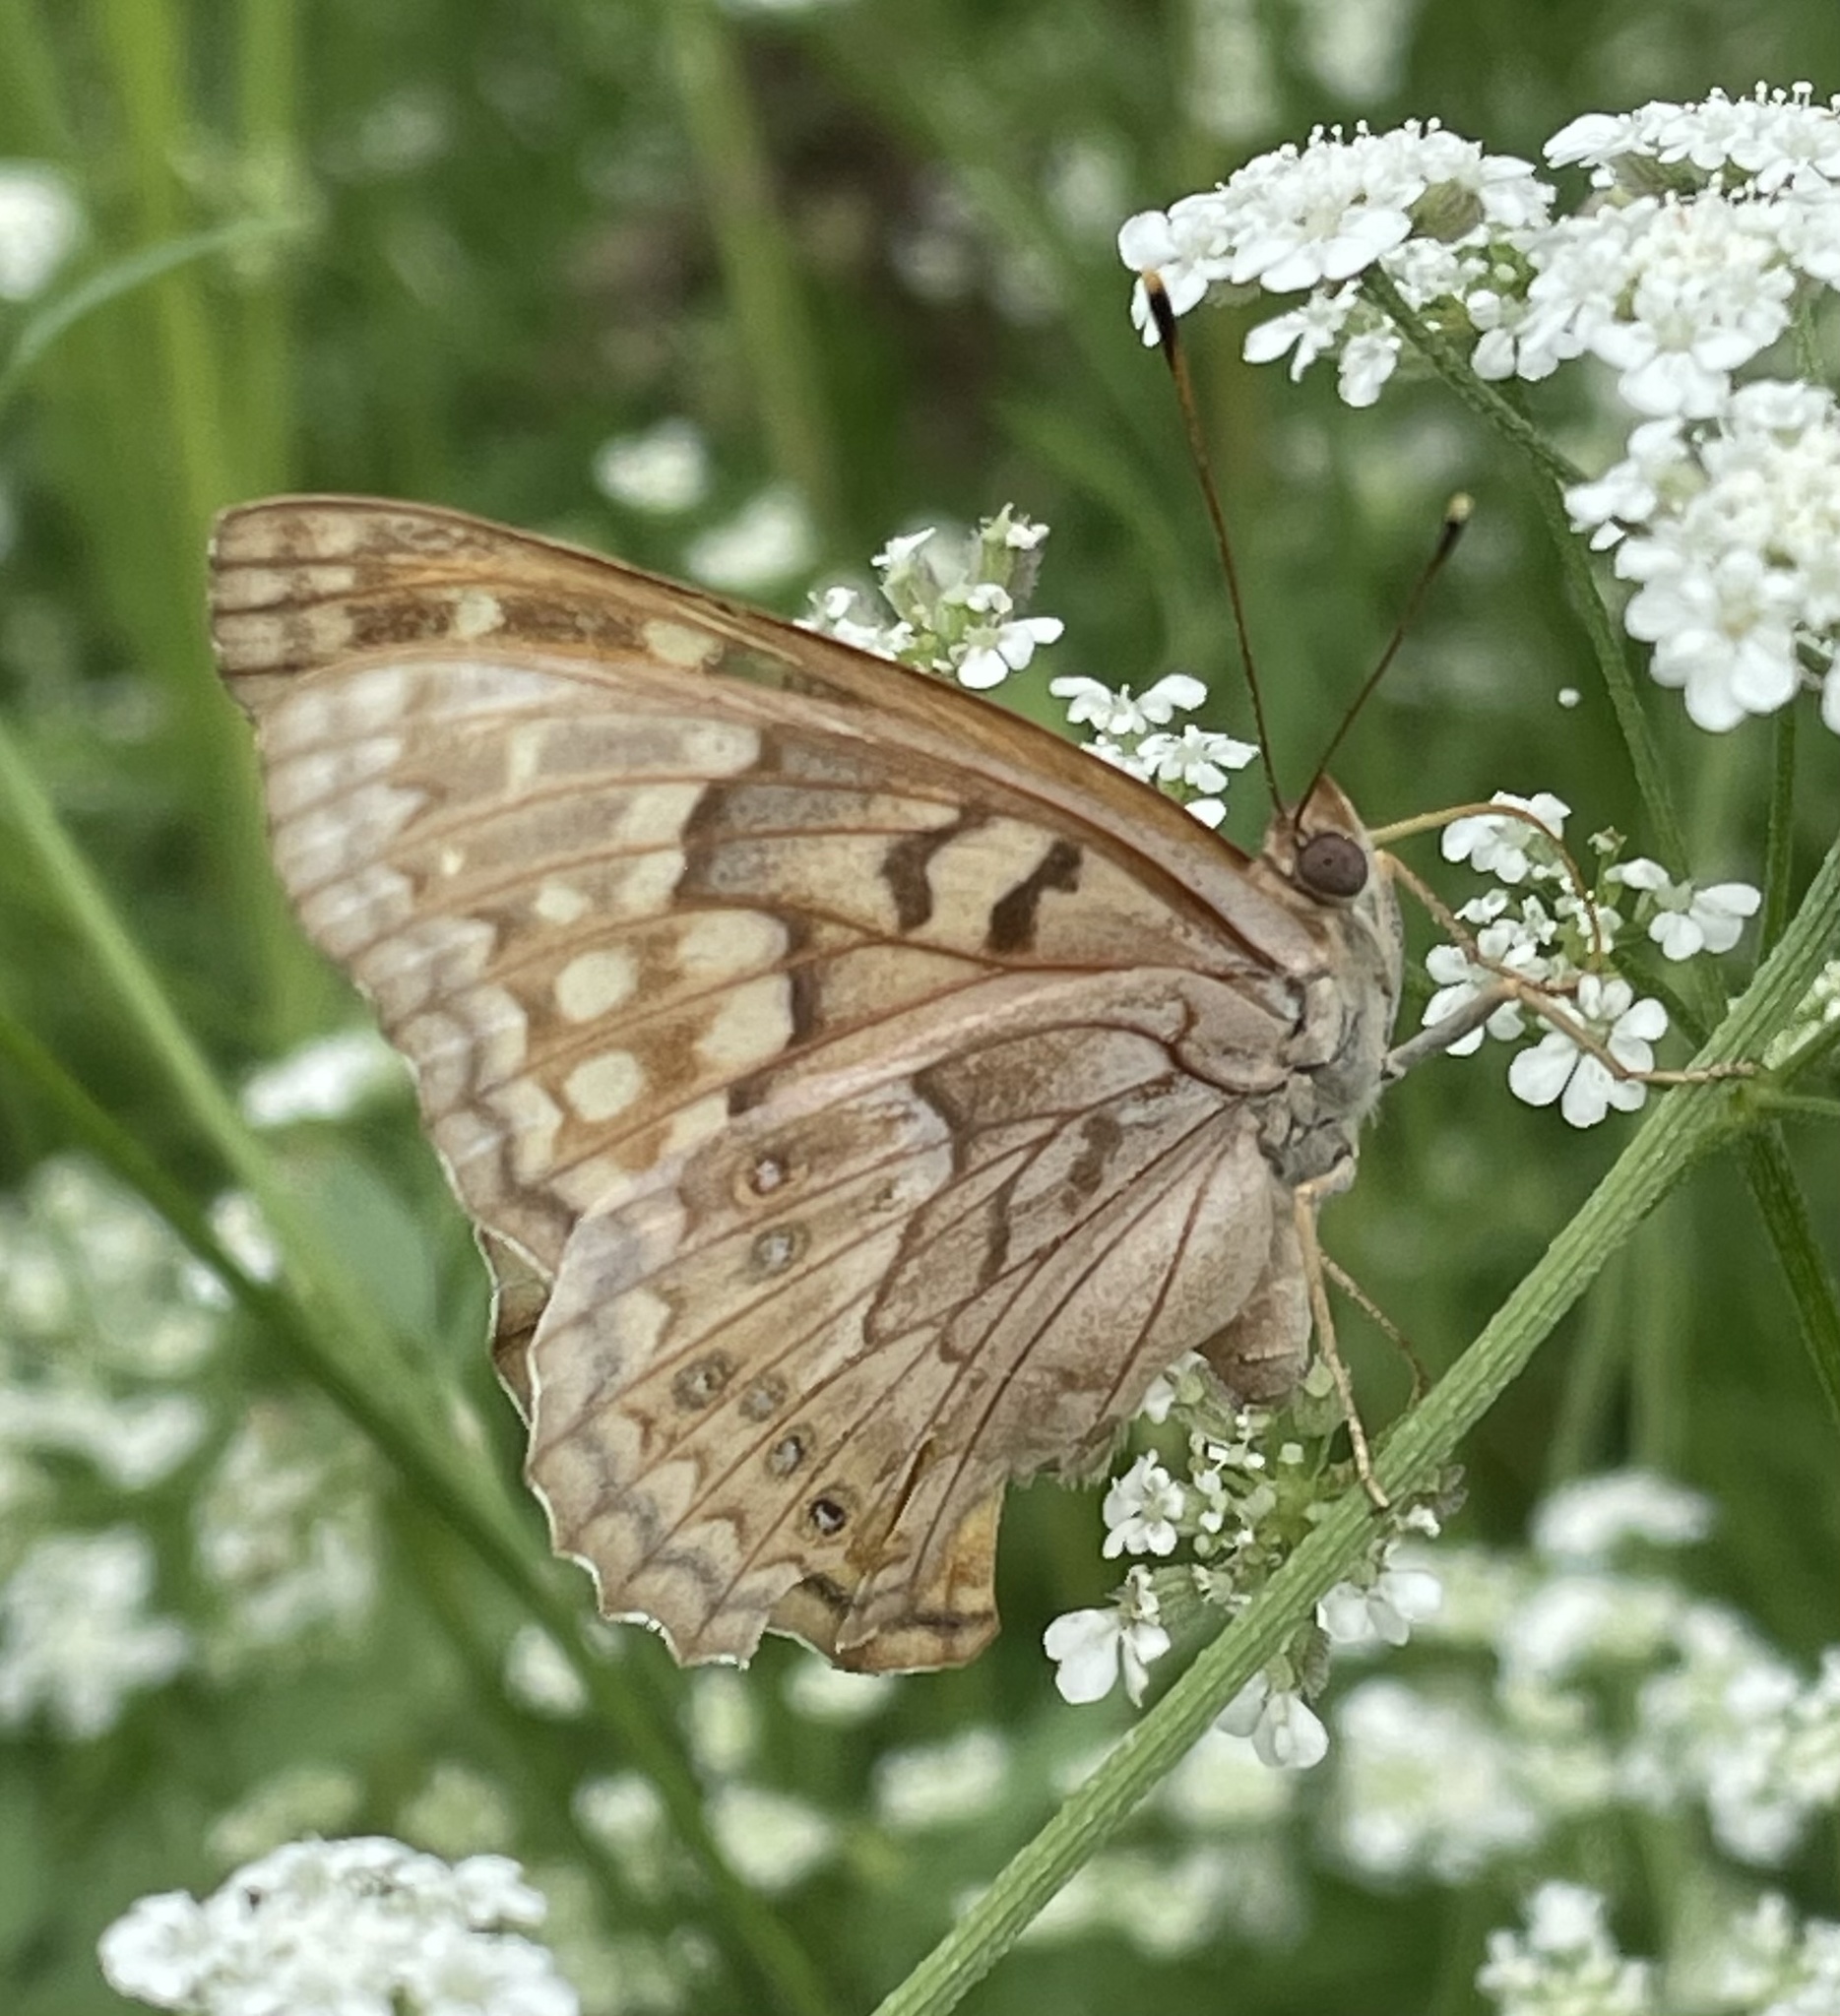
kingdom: Animalia
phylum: Arthropoda
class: Insecta
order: Lepidoptera
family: Nymphalidae
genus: Asterocampa
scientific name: Asterocampa clyton
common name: Tawny emperor
